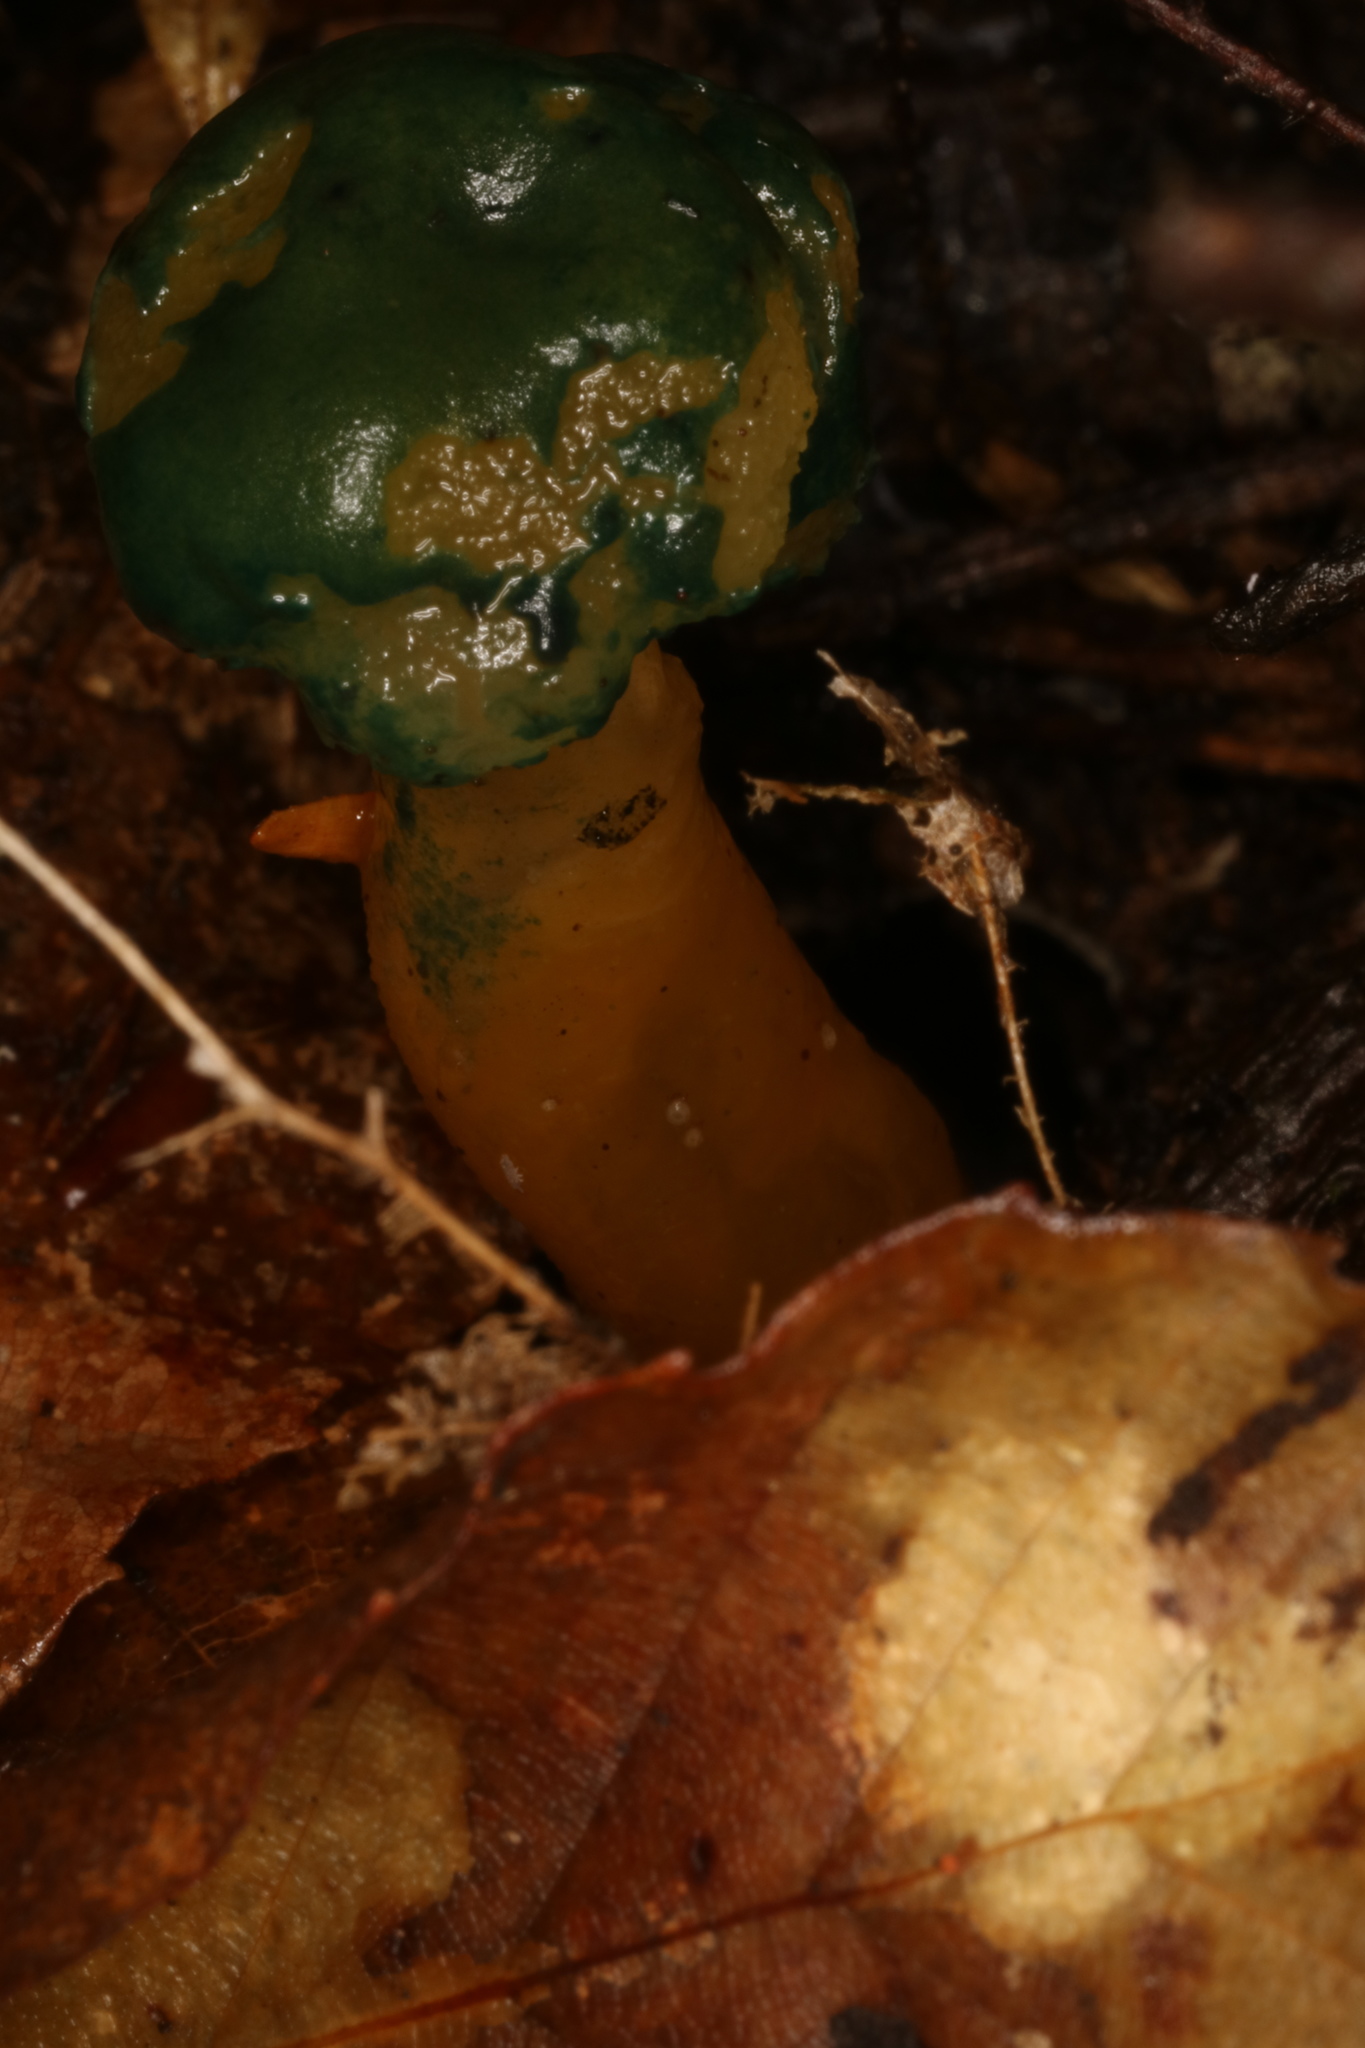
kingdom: Fungi
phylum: Ascomycota
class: Leotiomycetes
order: Leotiales
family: Leotiaceae
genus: Leotia
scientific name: Leotia lubrica
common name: Jellybaby
